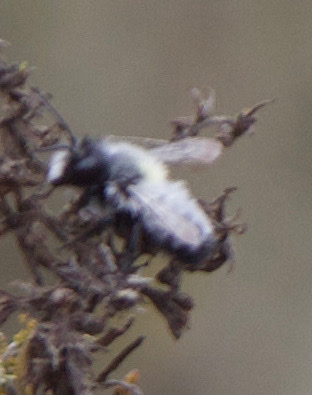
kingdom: Animalia
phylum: Arthropoda
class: Insecta
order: Hymenoptera
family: Megachilidae
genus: Megachile
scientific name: Megachile saulcyi
